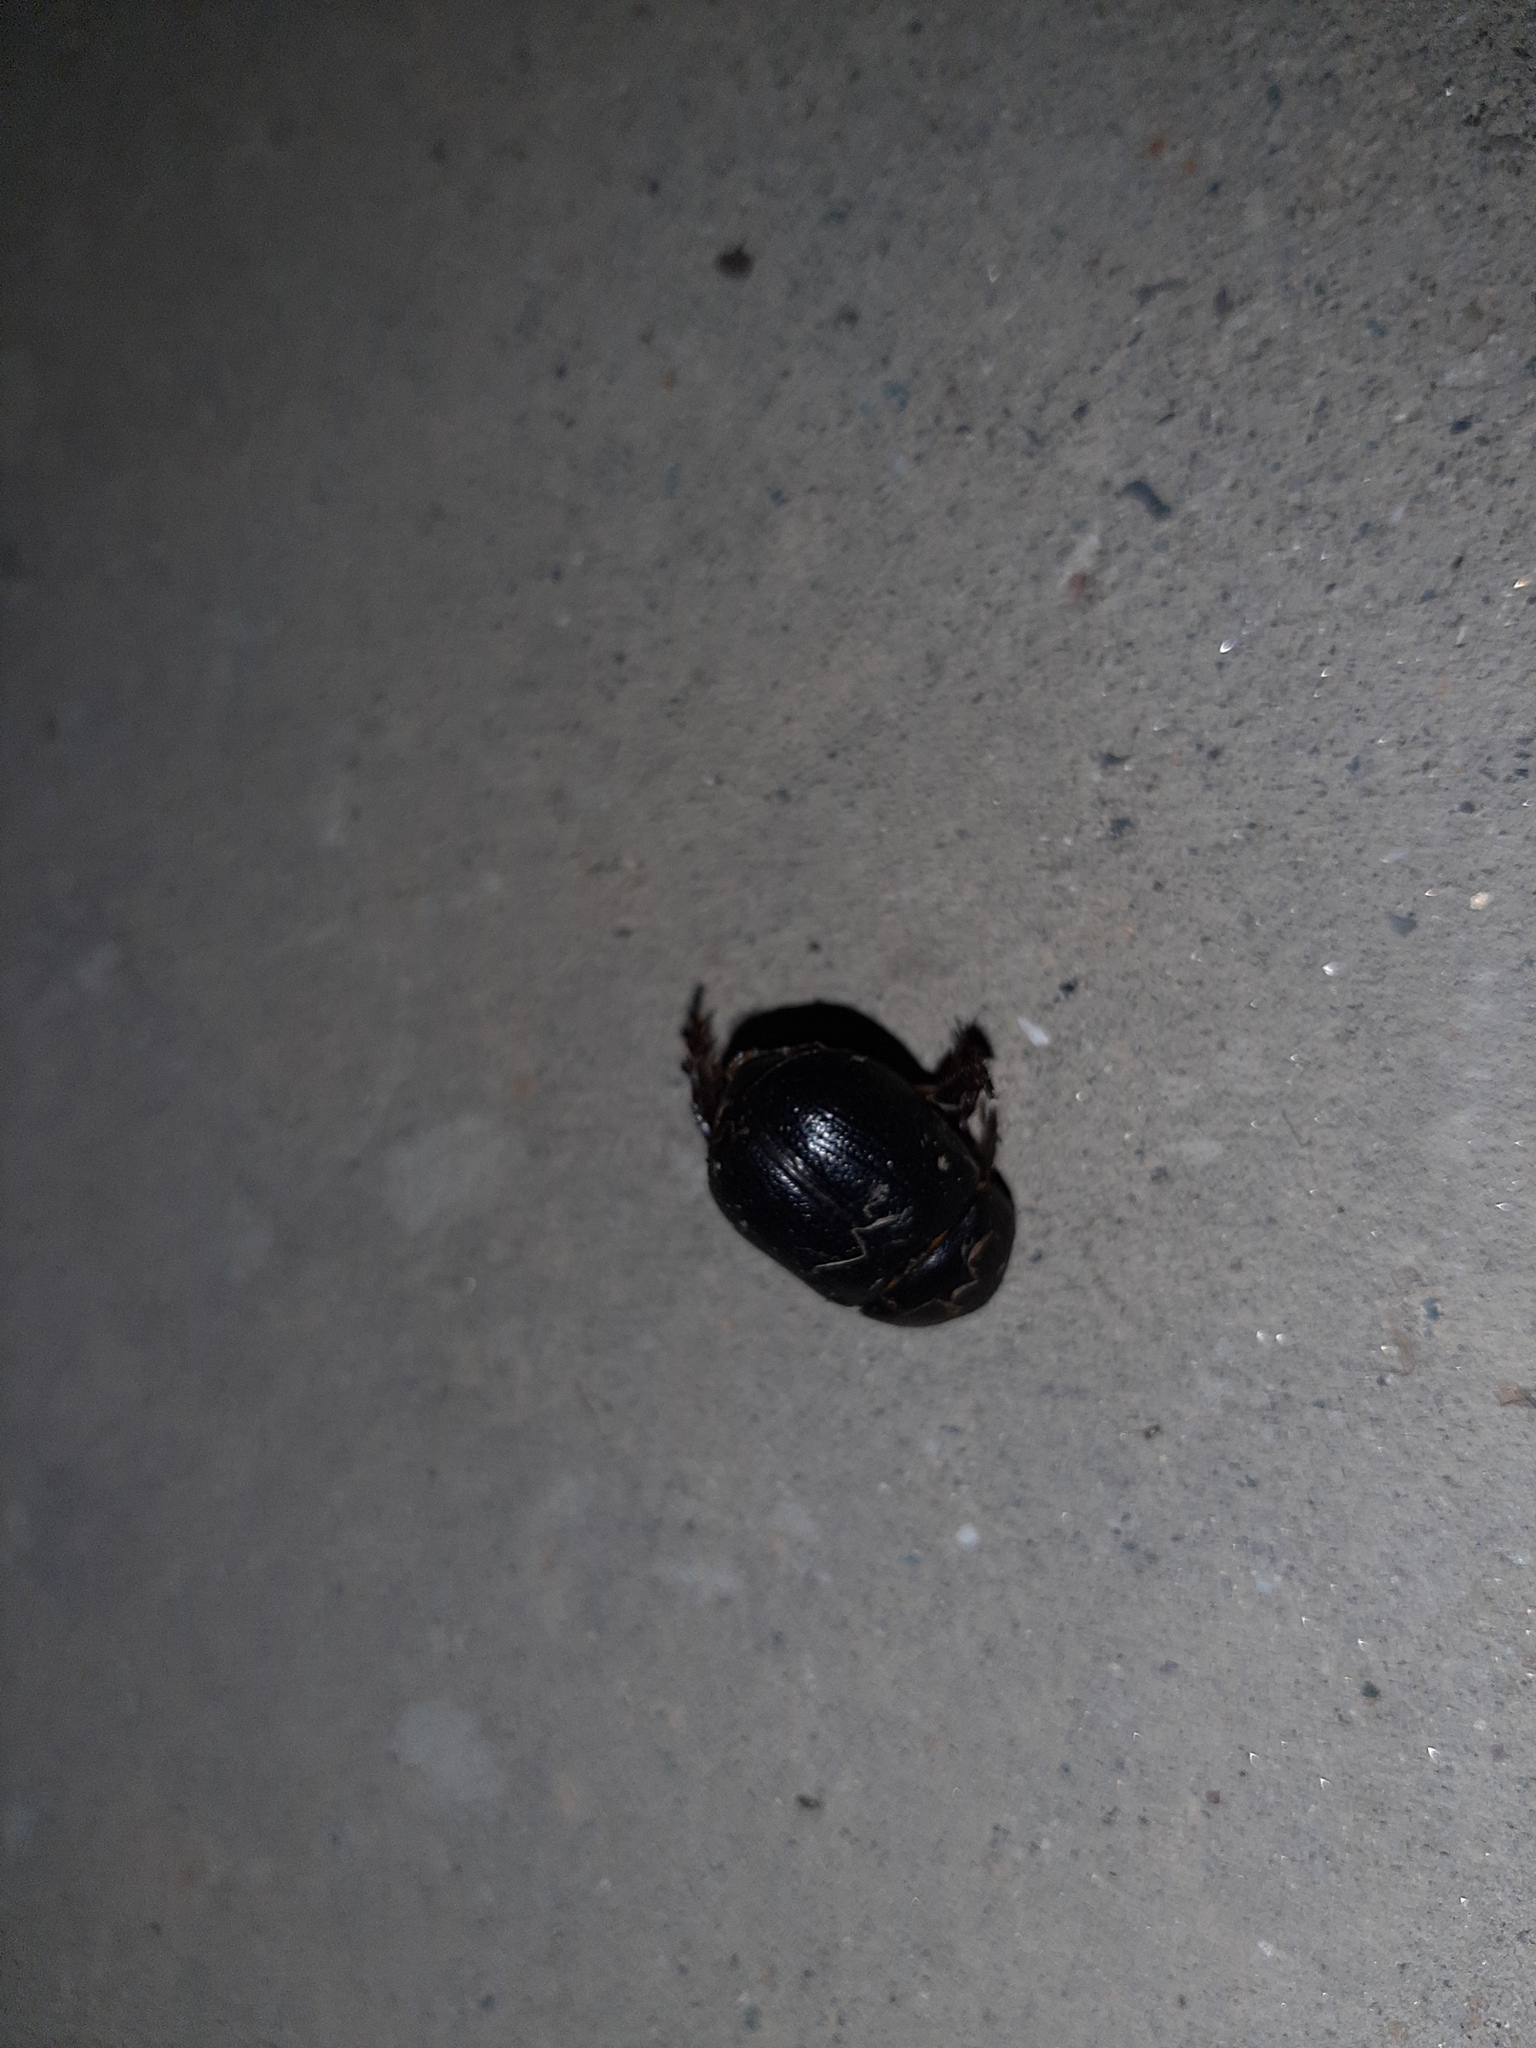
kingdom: Animalia
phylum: Arthropoda
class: Insecta
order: Coleoptera
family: Scarabaeidae
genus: Pentodon
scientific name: Pentodon bidens
